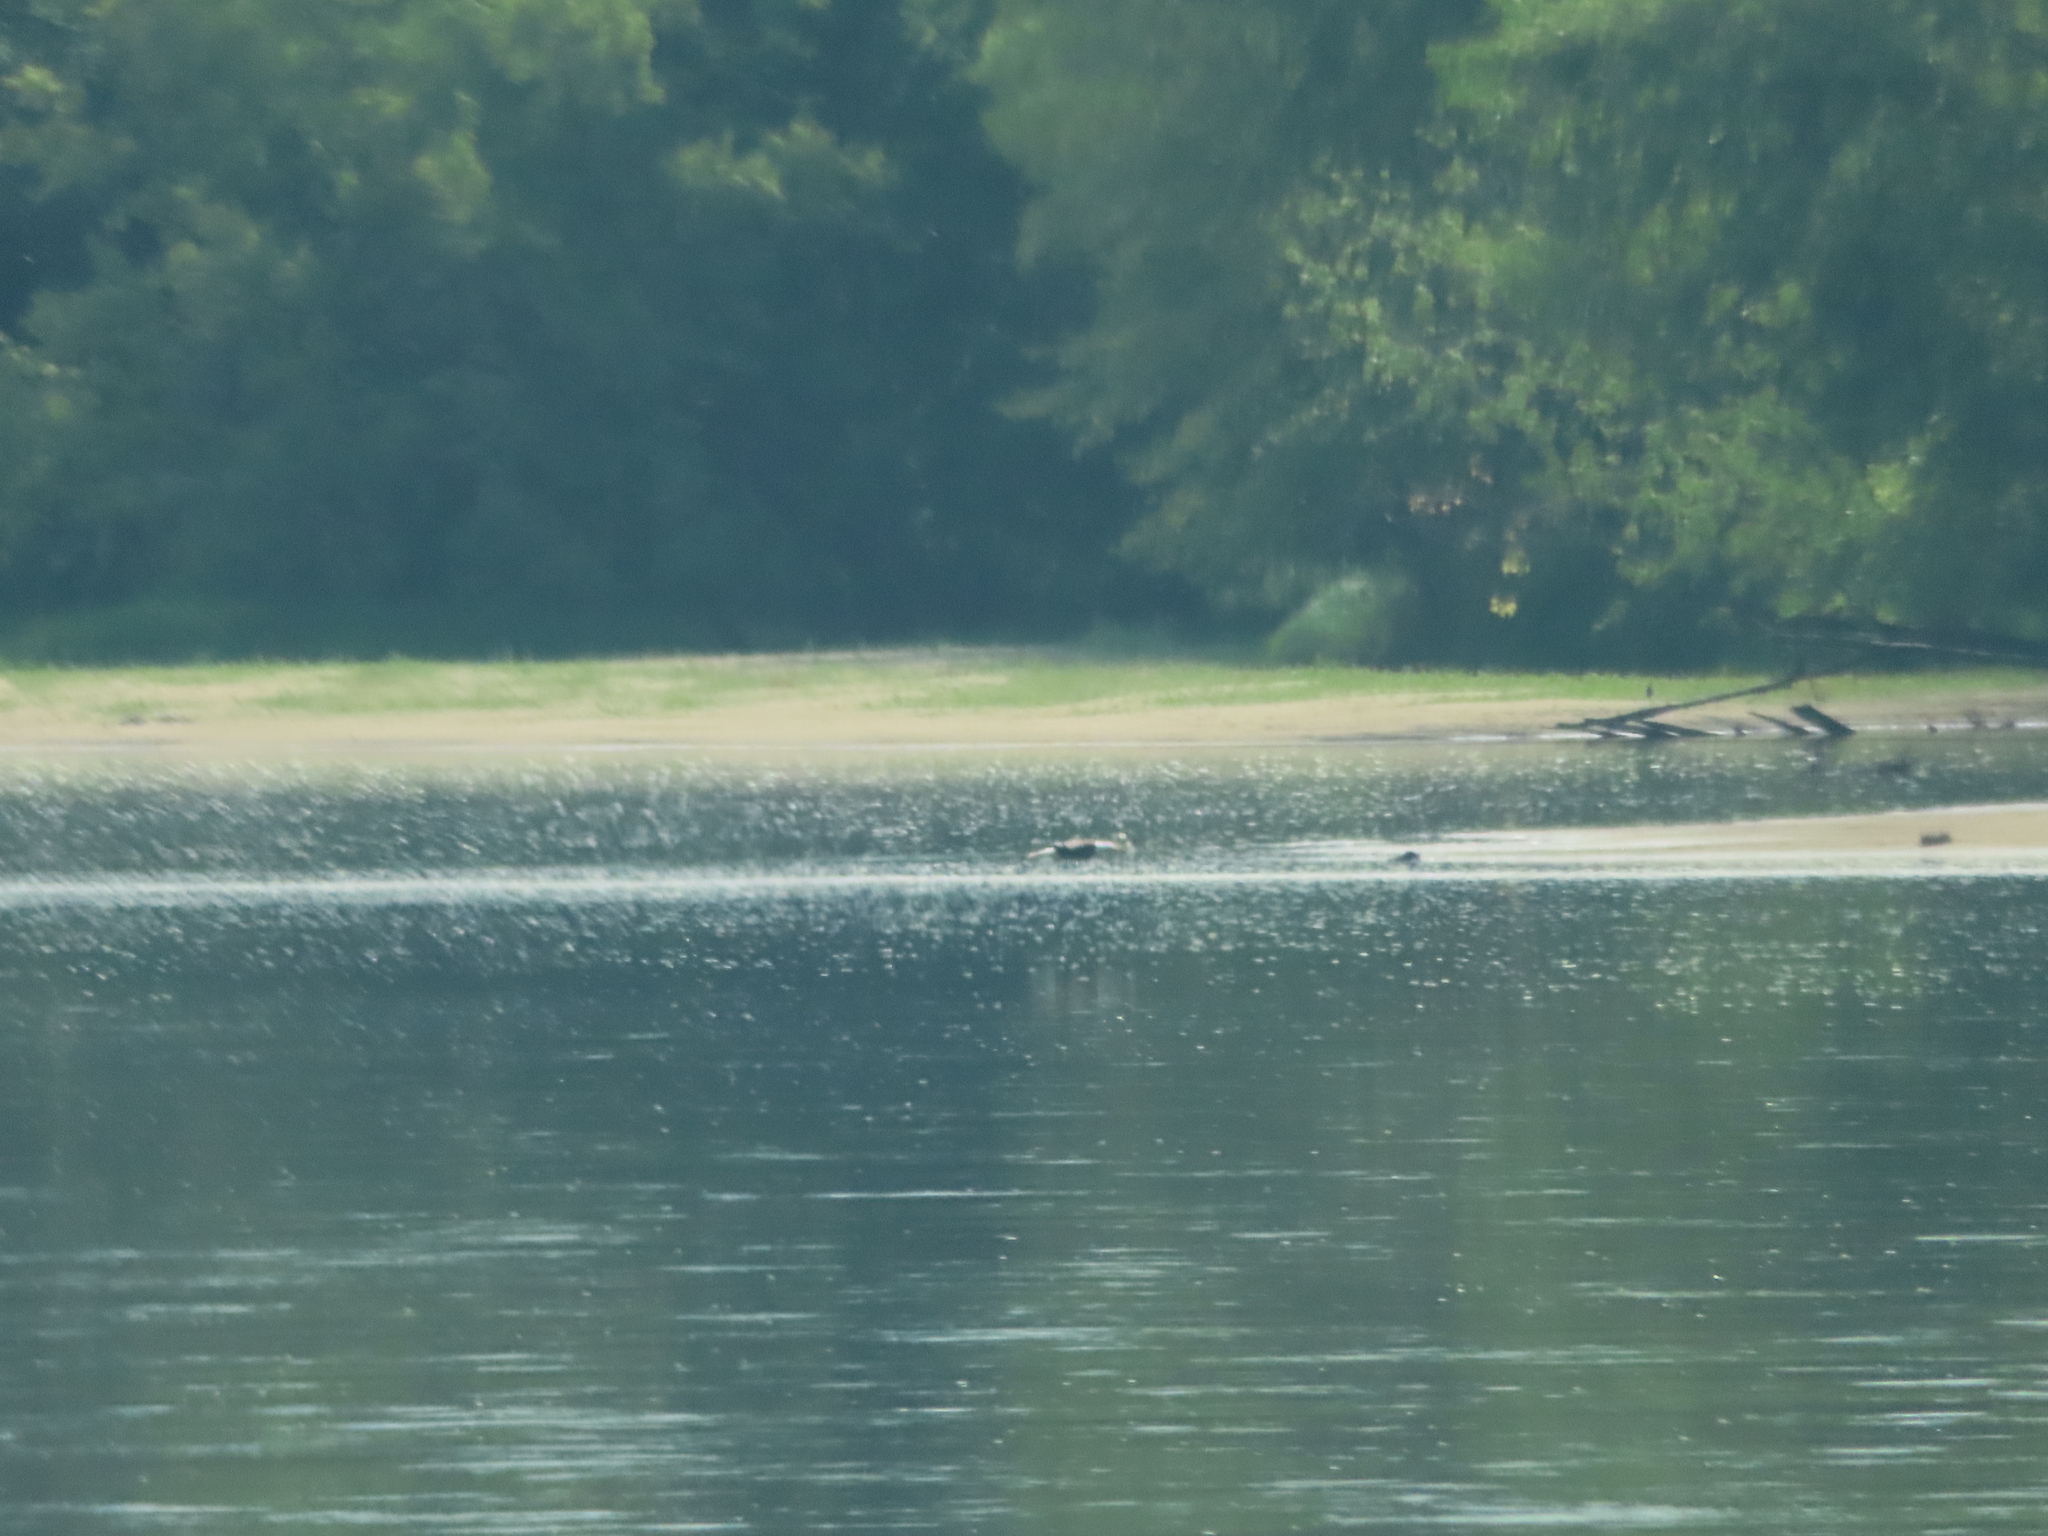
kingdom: Animalia
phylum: Chordata
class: Aves
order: Accipitriformes
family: Accipitridae
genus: Haliaeetus
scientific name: Haliaeetus leucocephalus
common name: Bald eagle
